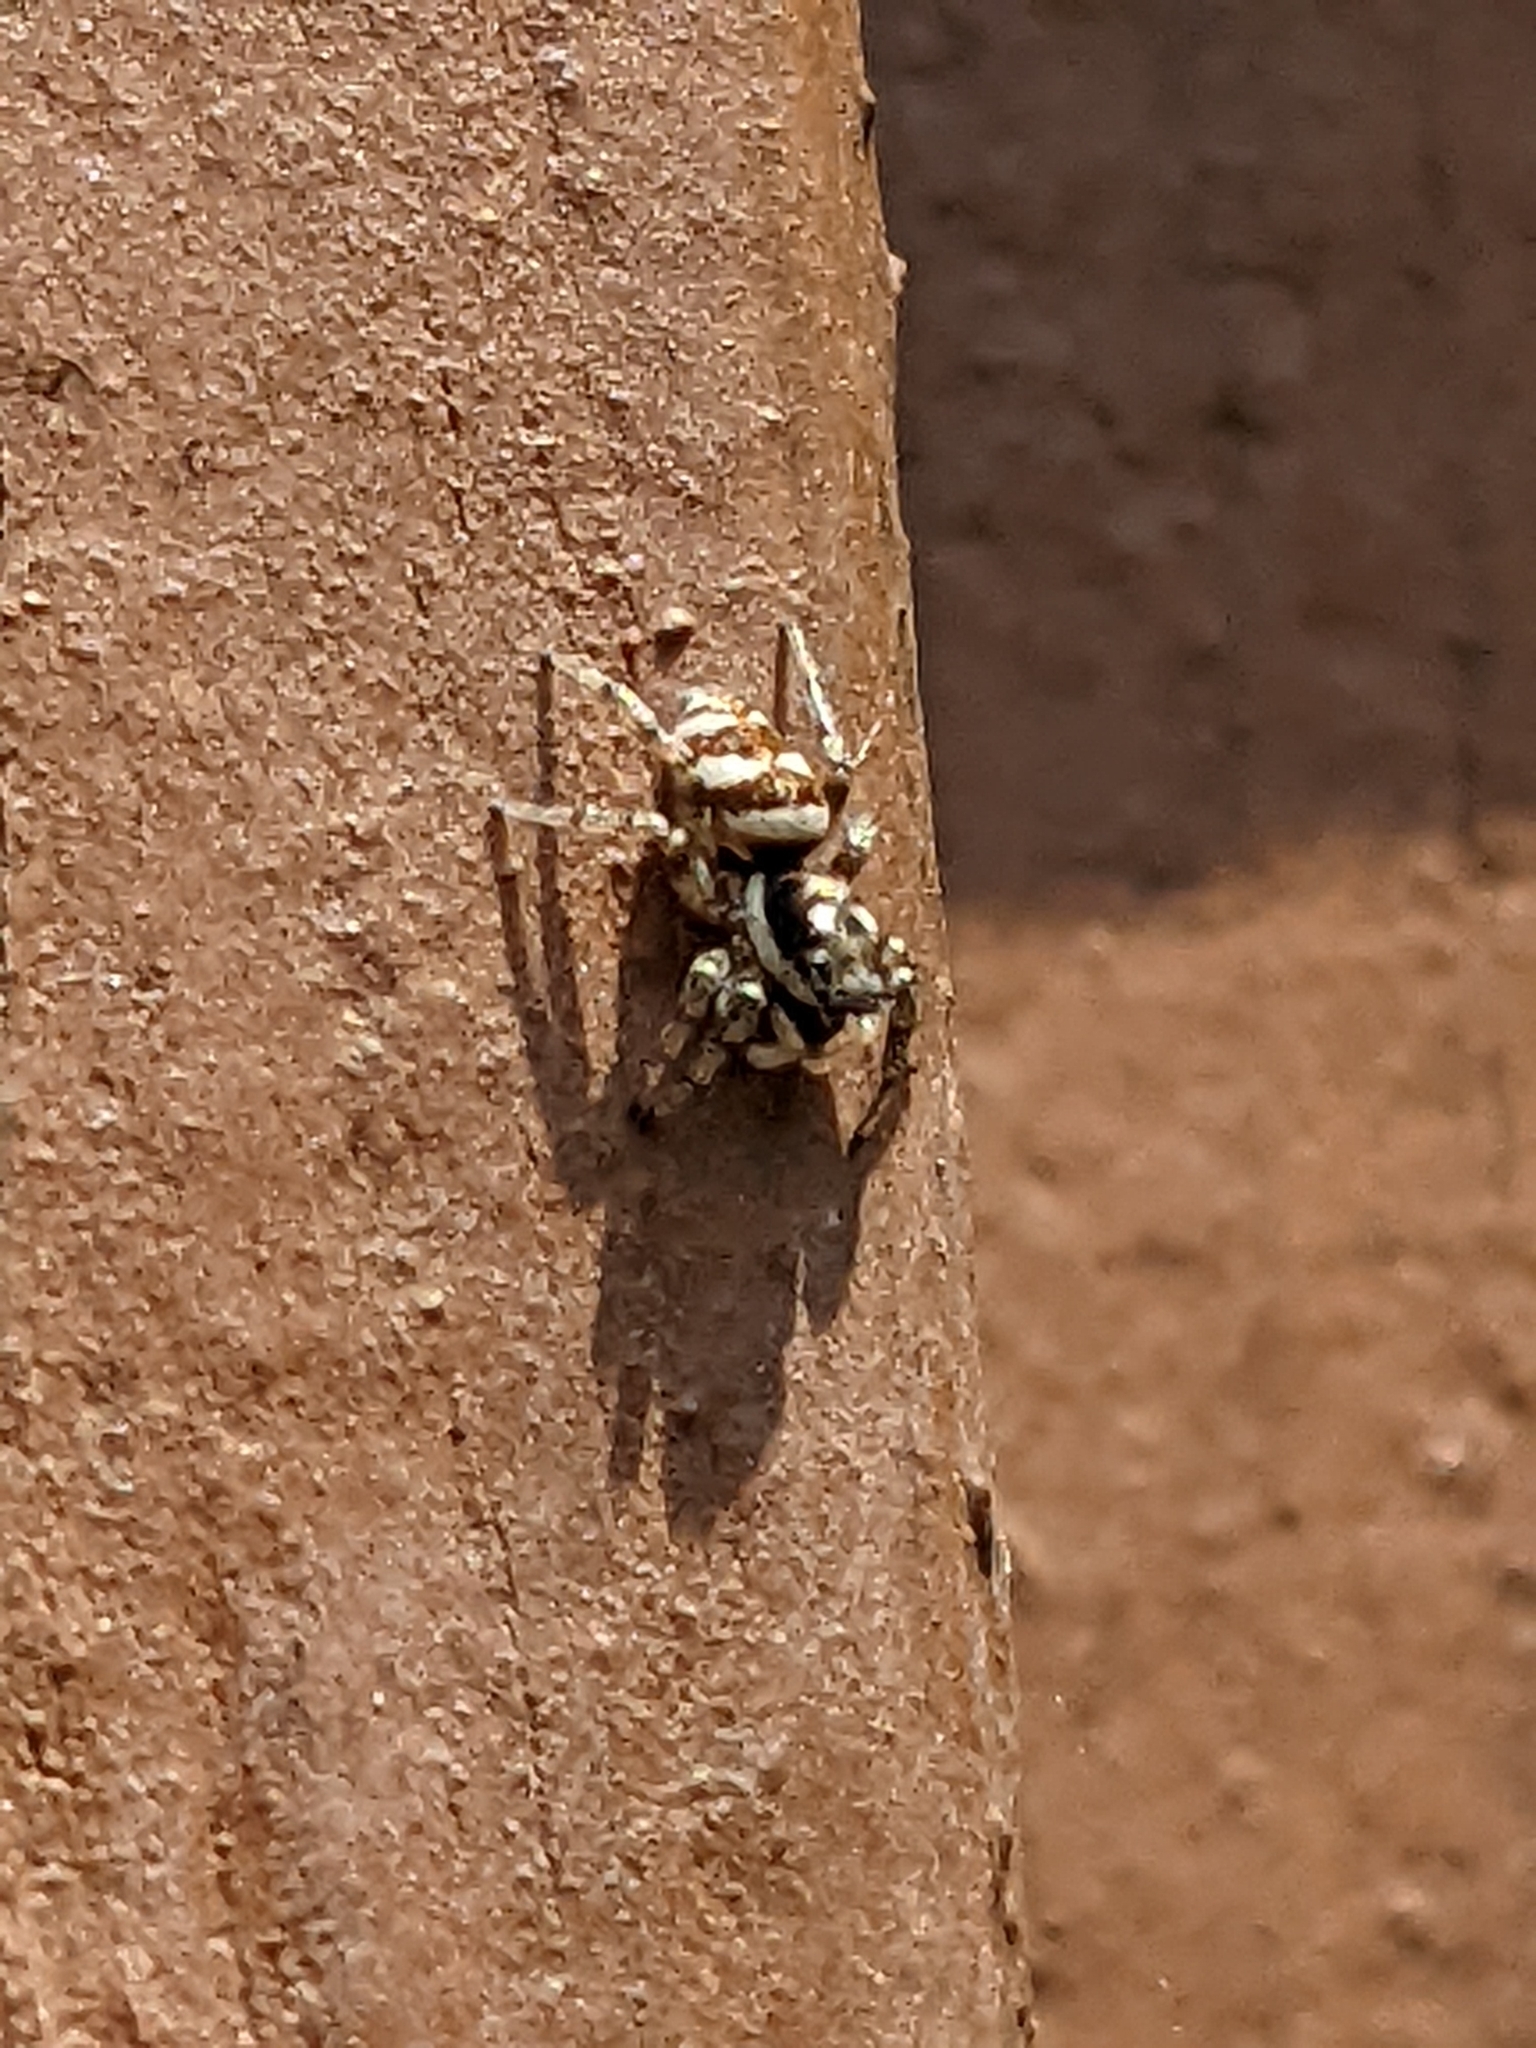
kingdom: Animalia
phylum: Arthropoda
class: Arachnida
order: Araneae
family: Salticidae
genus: Salticus
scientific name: Salticus scenicus
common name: Zebra jumper
